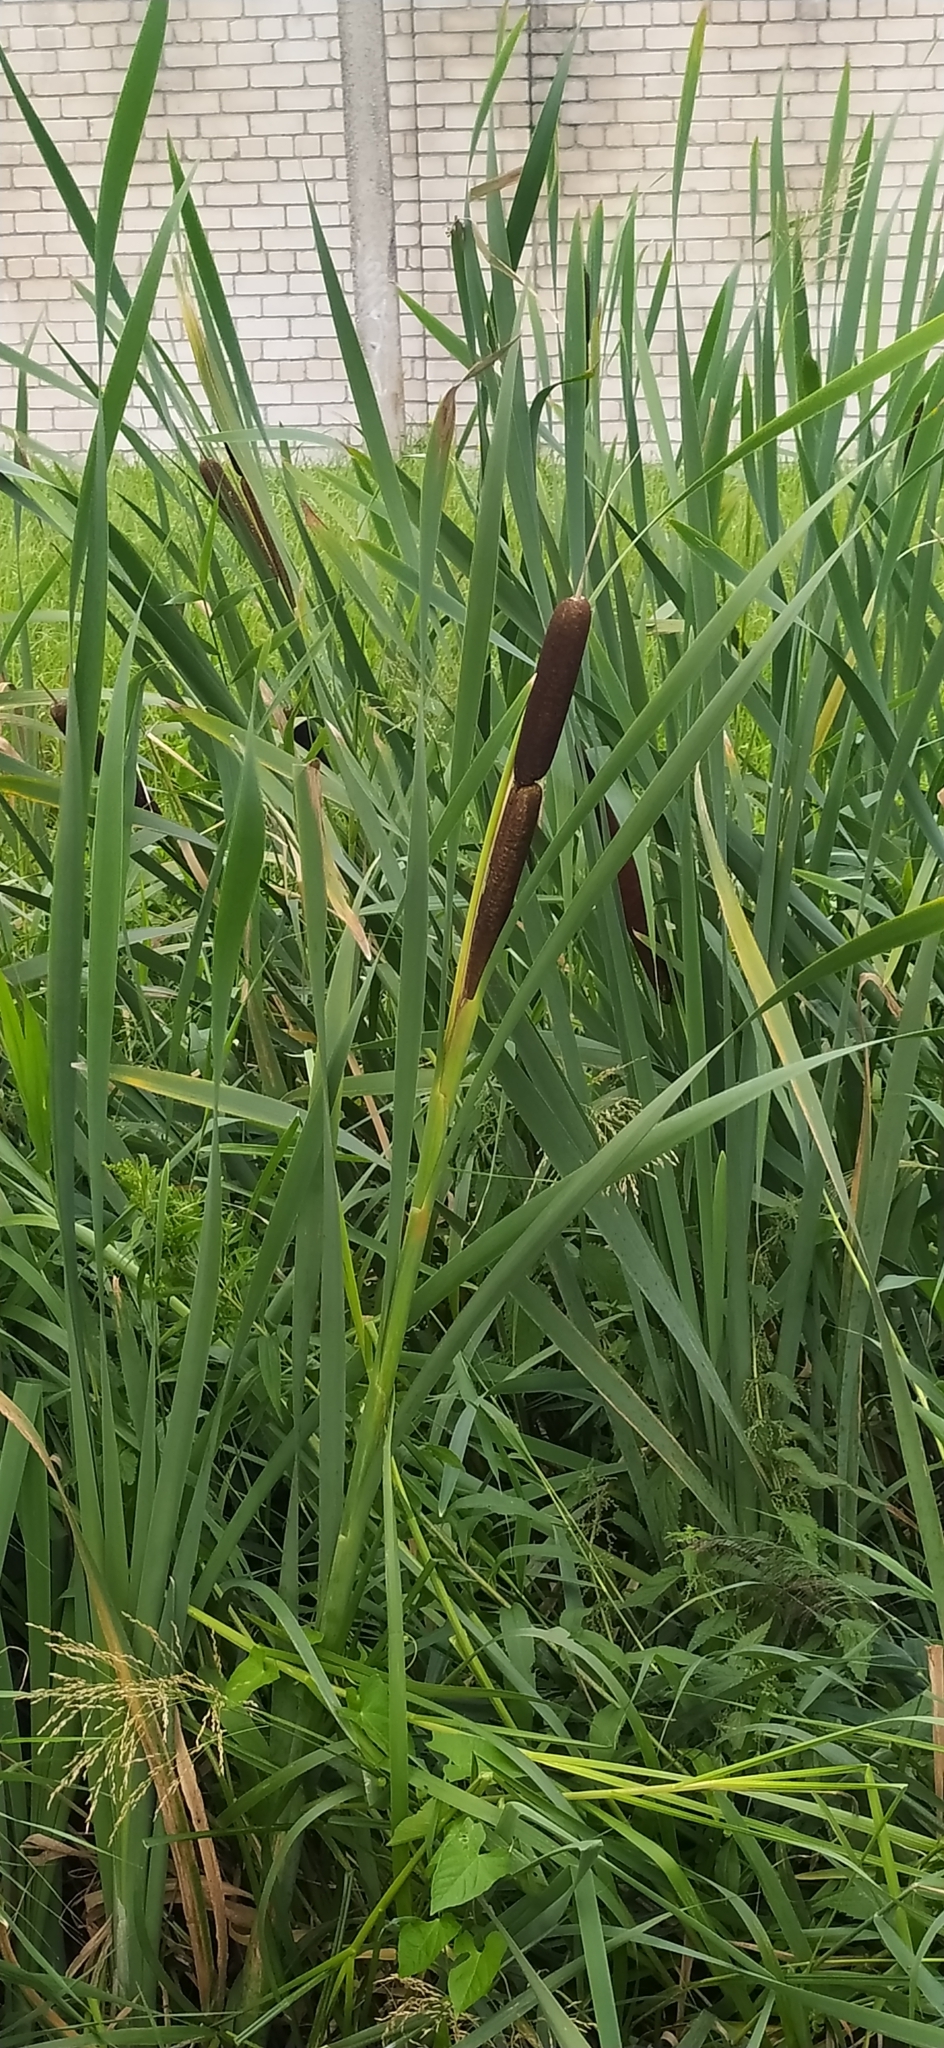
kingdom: Plantae
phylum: Tracheophyta
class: Liliopsida
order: Poales
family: Typhaceae
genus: Typha
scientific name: Typha latifolia
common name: Broadleaf cattail
